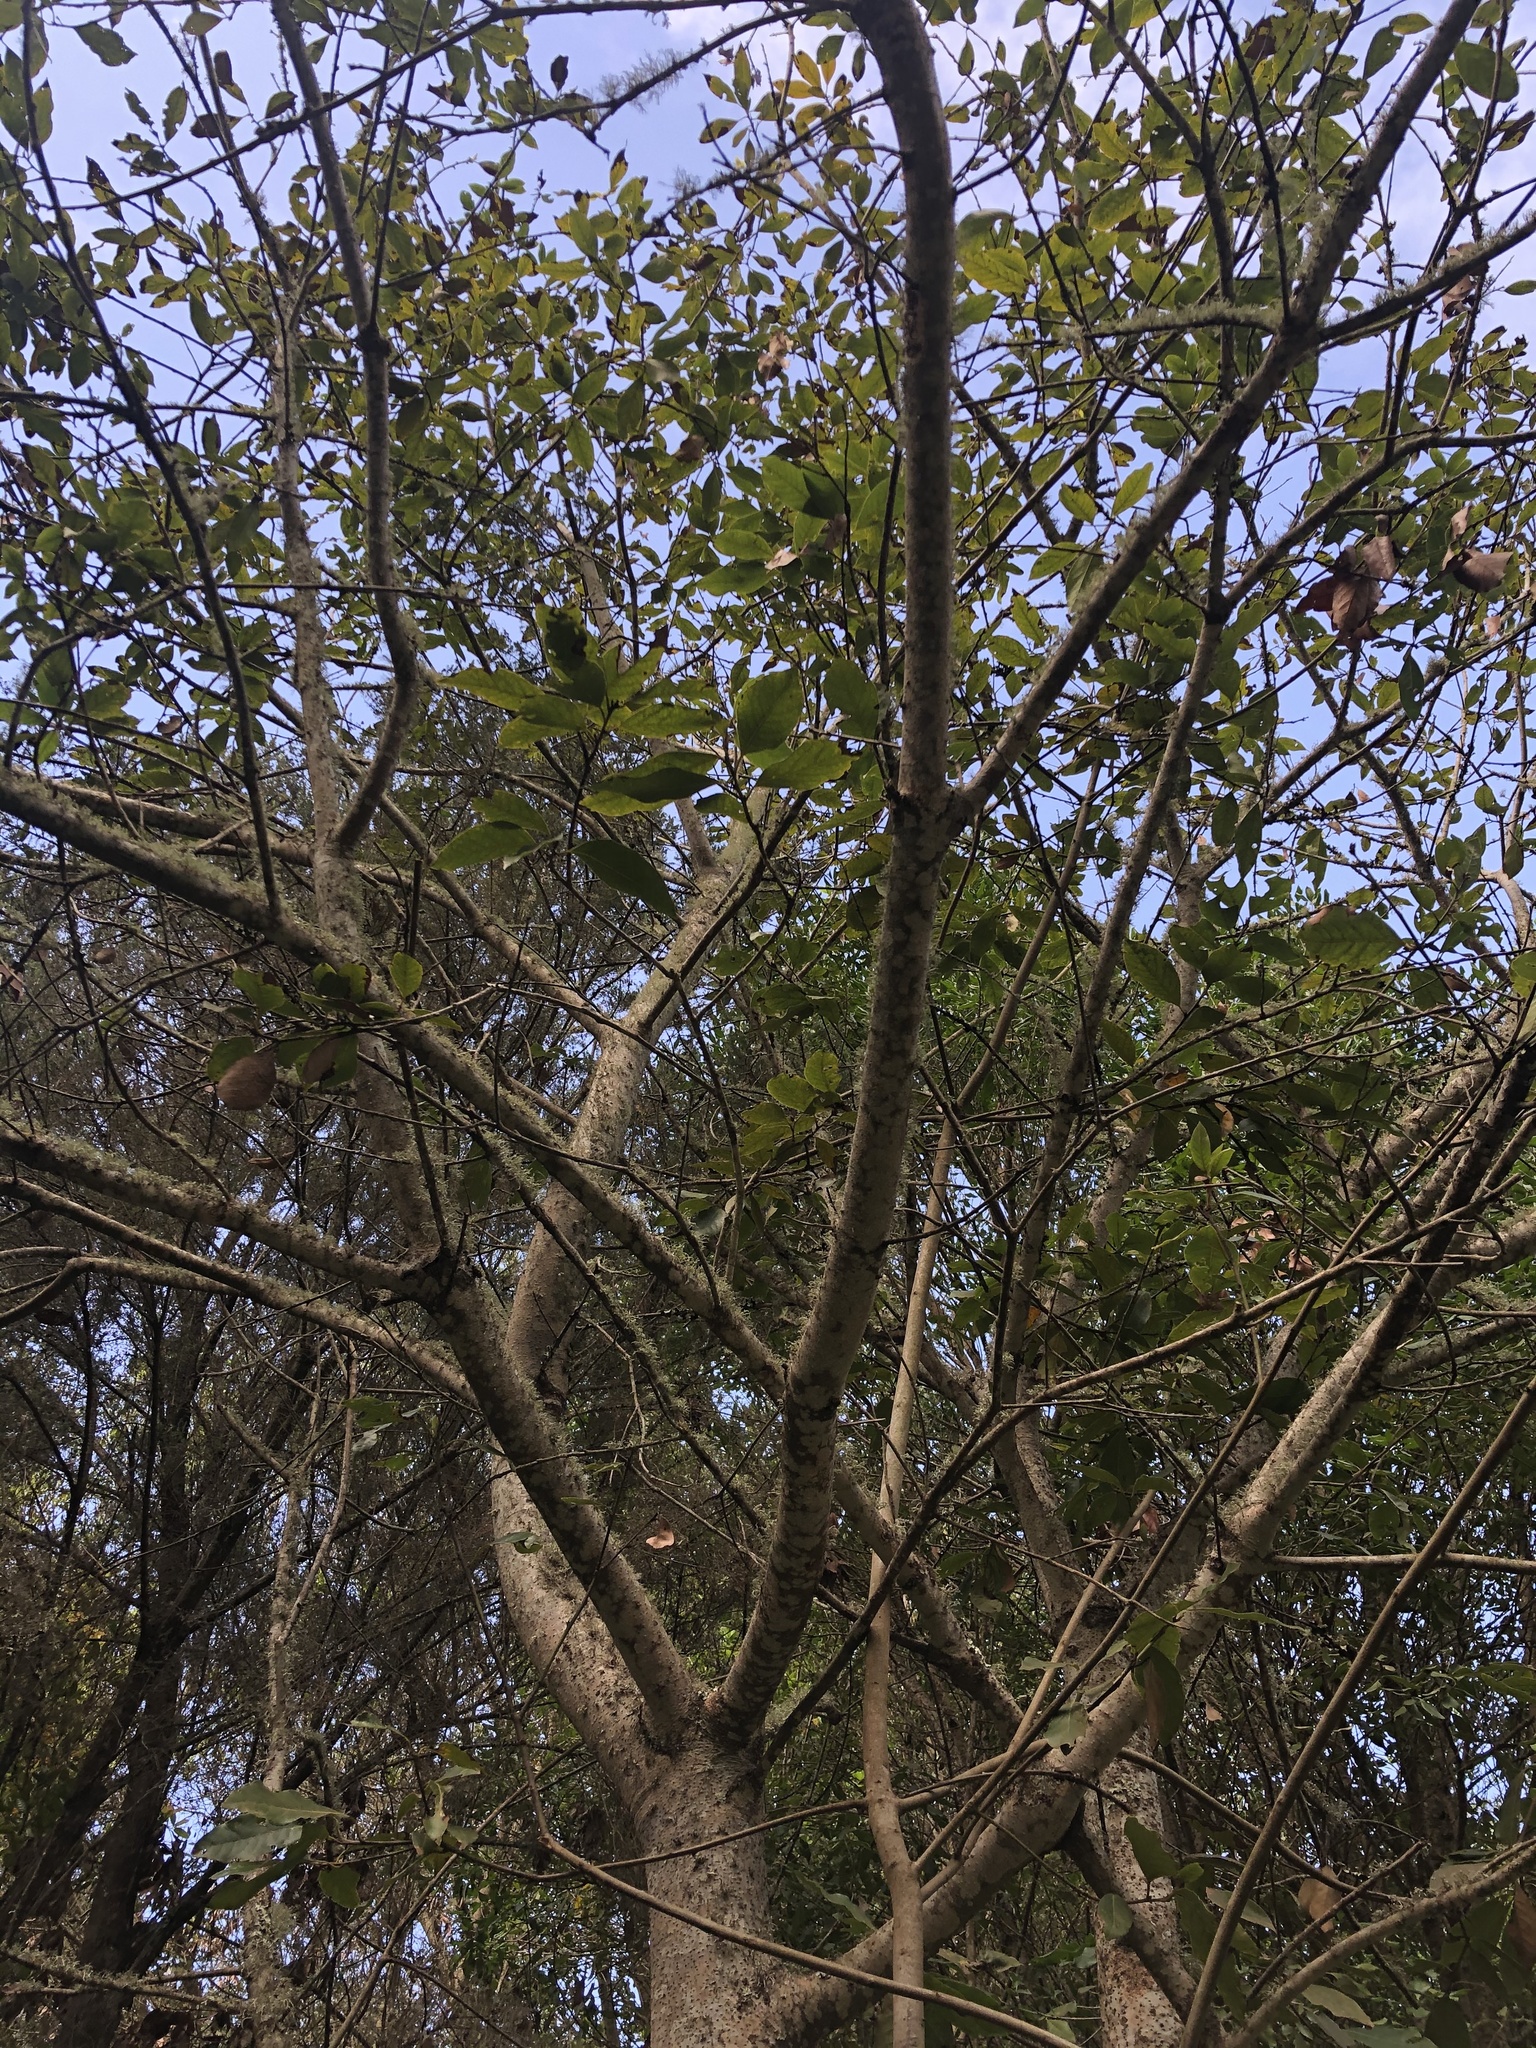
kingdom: Plantae
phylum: Tracheophyta
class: Magnoliopsida
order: Laurales
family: Lauraceae
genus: Laurus
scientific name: Laurus novocanariensis
